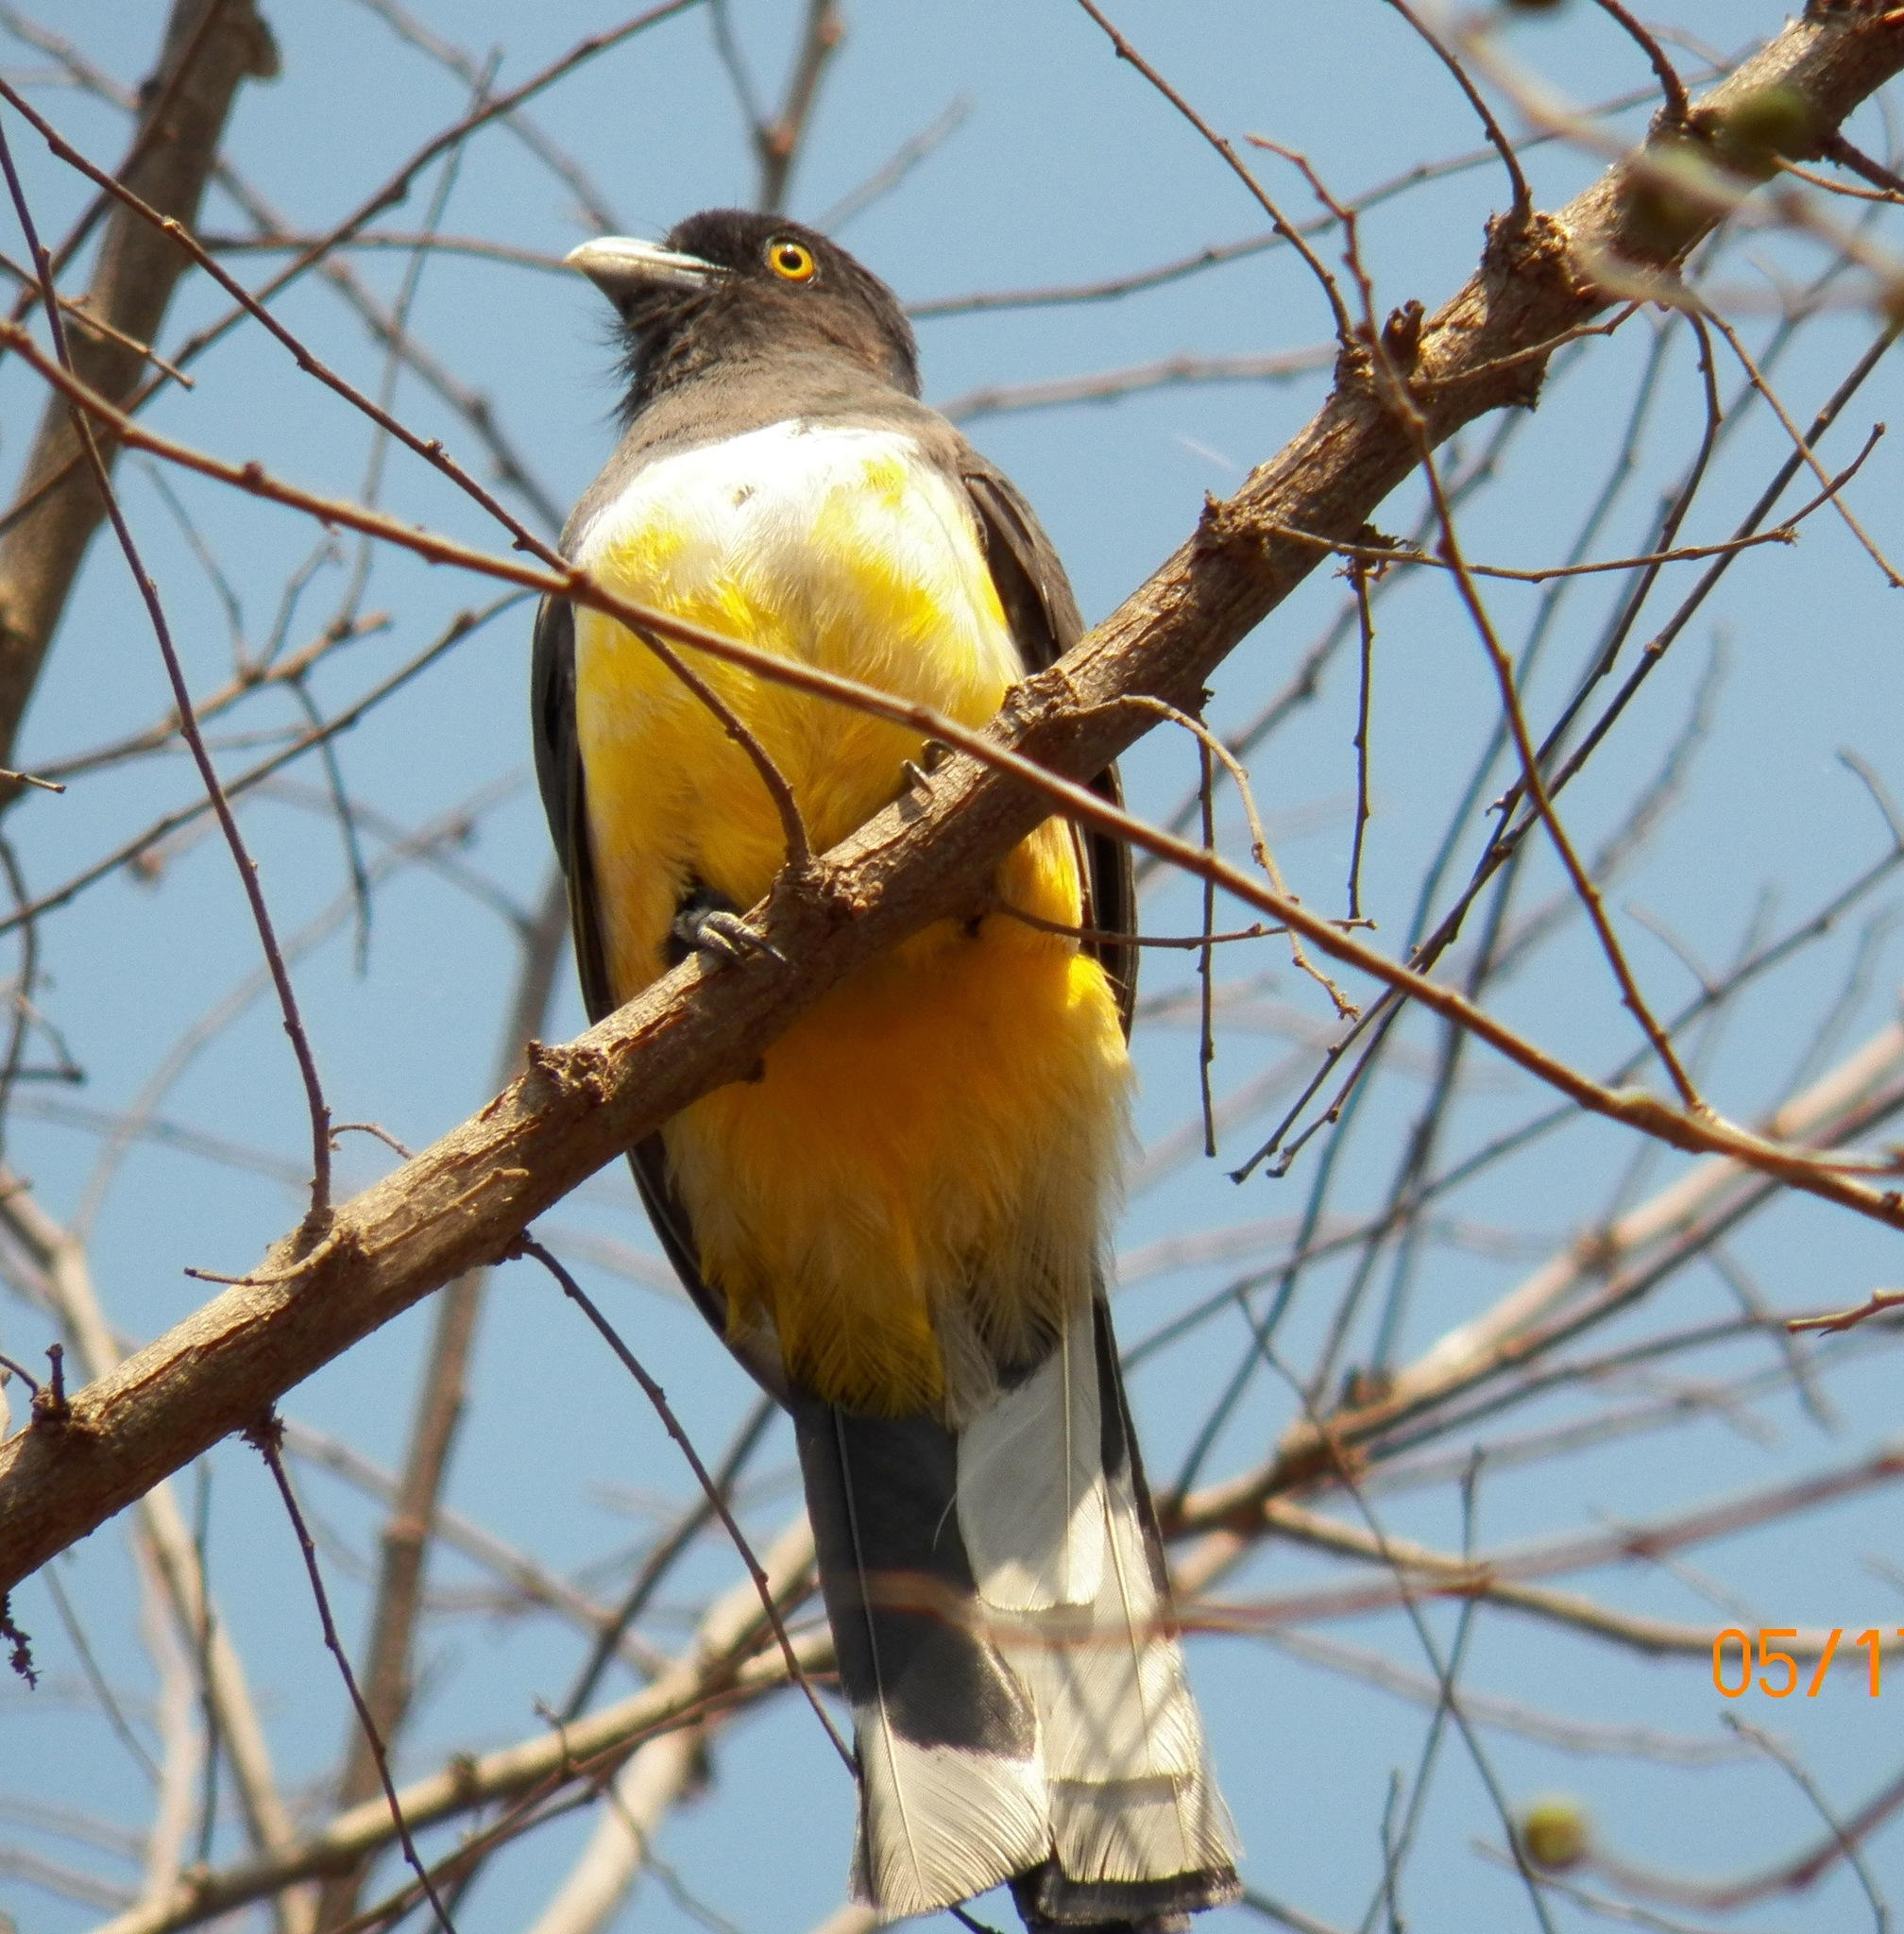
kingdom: Animalia
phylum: Chordata
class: Aves
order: Trogoniformes
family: Trogonidae
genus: Trogon
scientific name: Trogon citreolus
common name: Citreoline trogon
